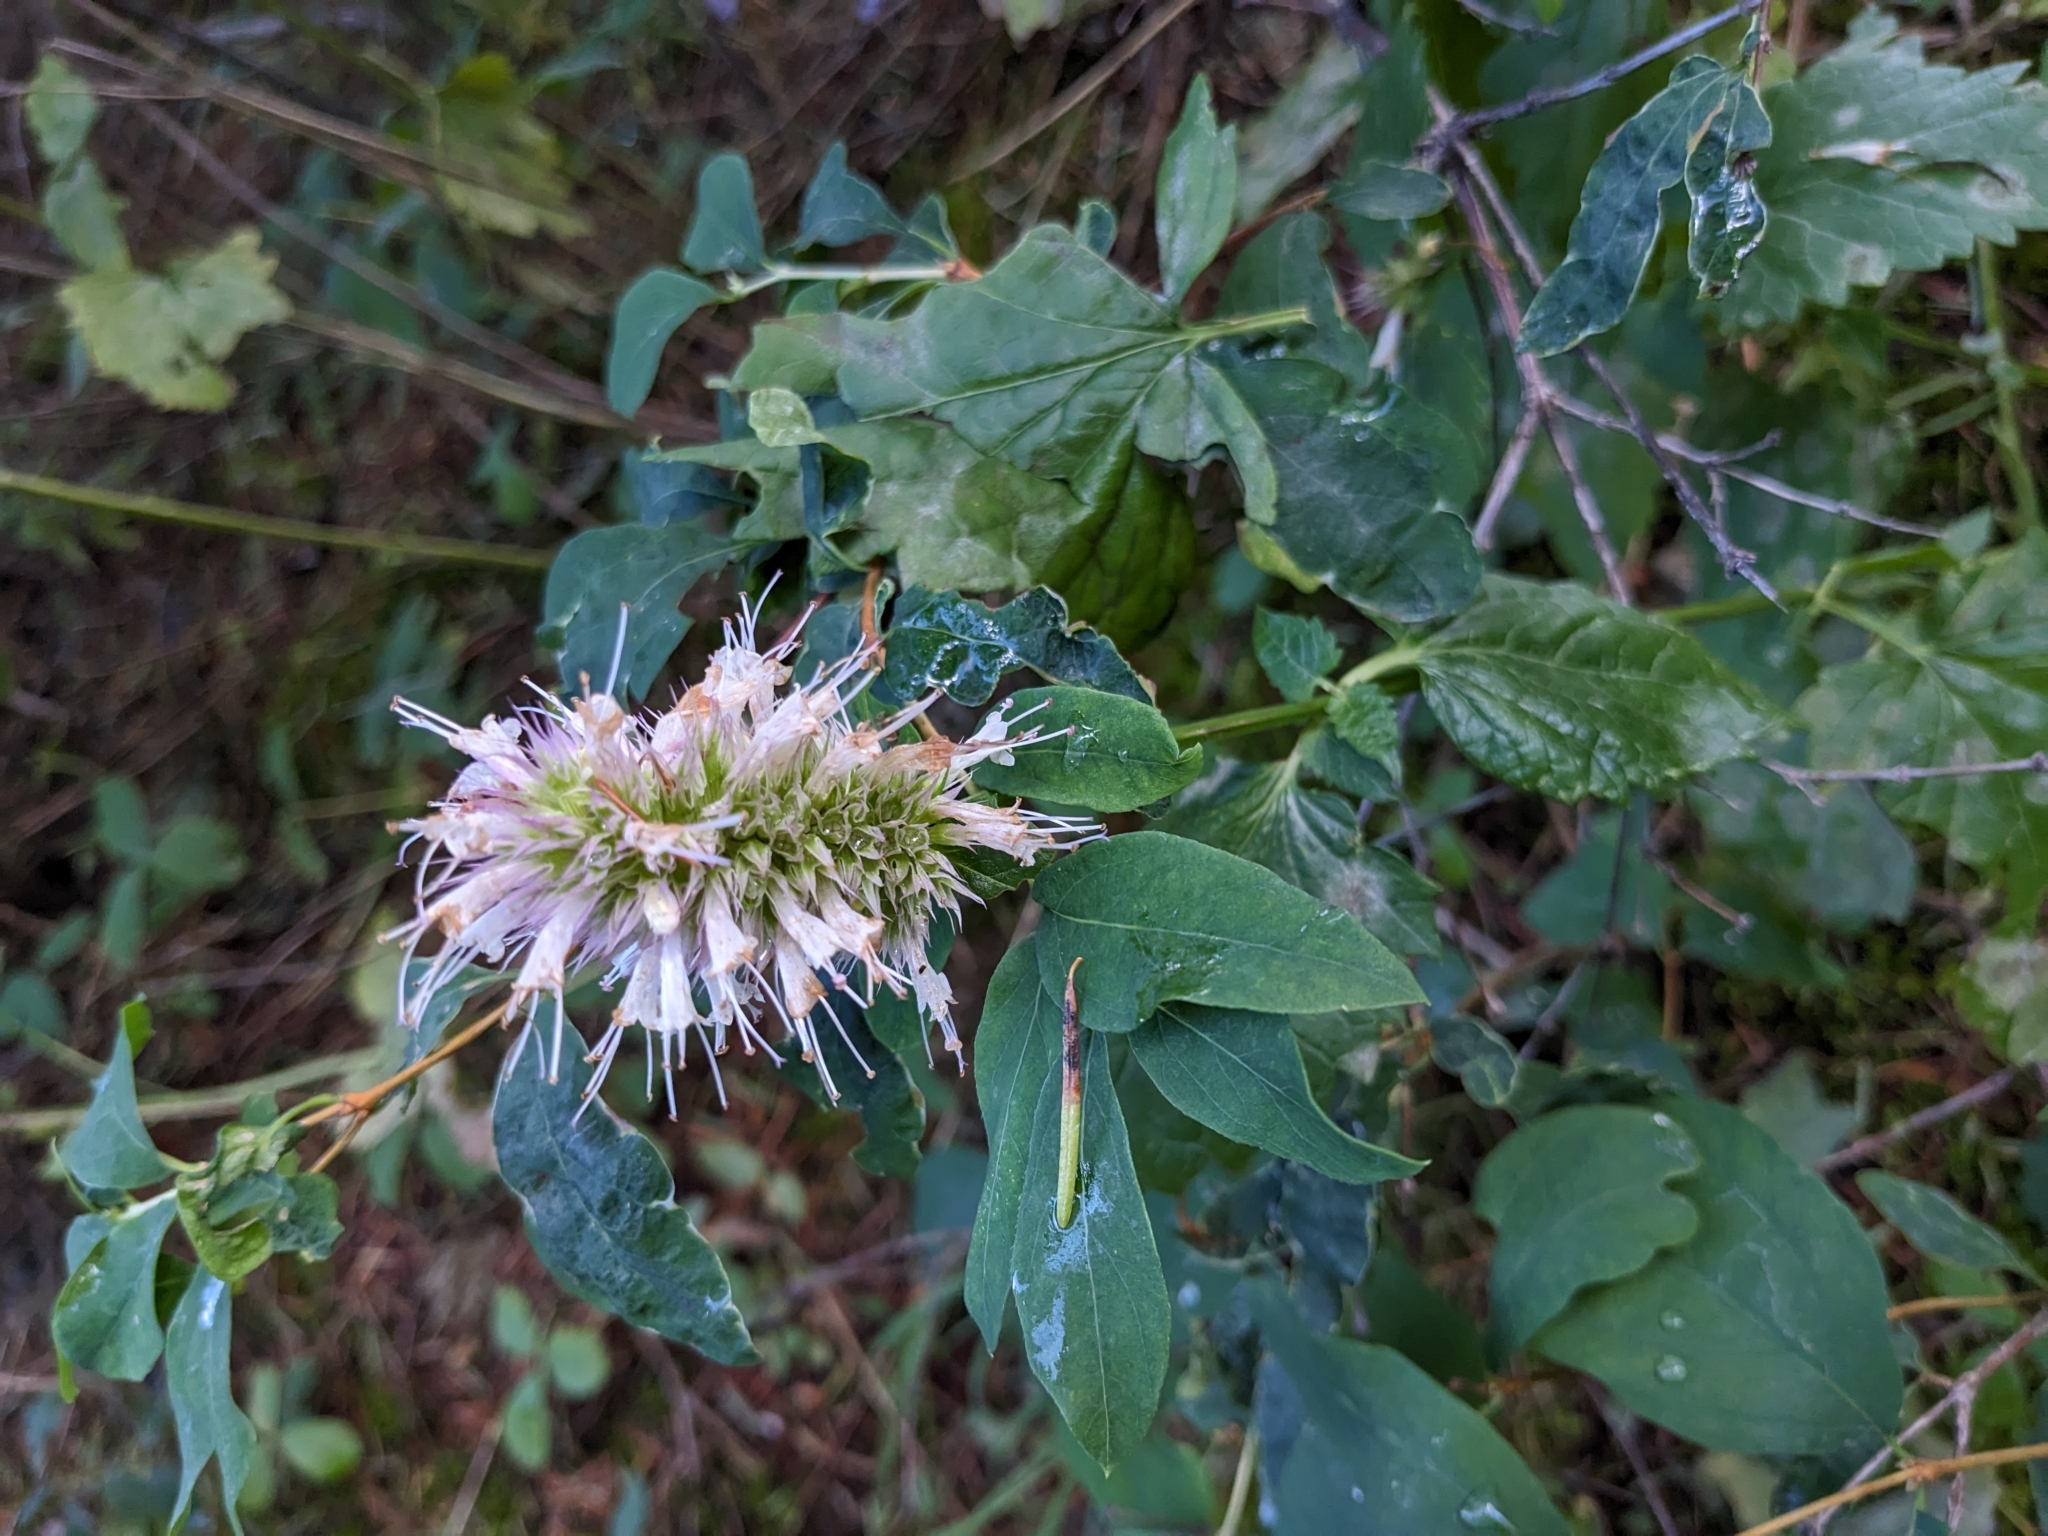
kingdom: Plantae
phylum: Tracheophyta
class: Magnoliopsida
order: Lamiales
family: Lamiaceae
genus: Agastache
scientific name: Agastache urticifolia
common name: Horsemint giant hyssop
